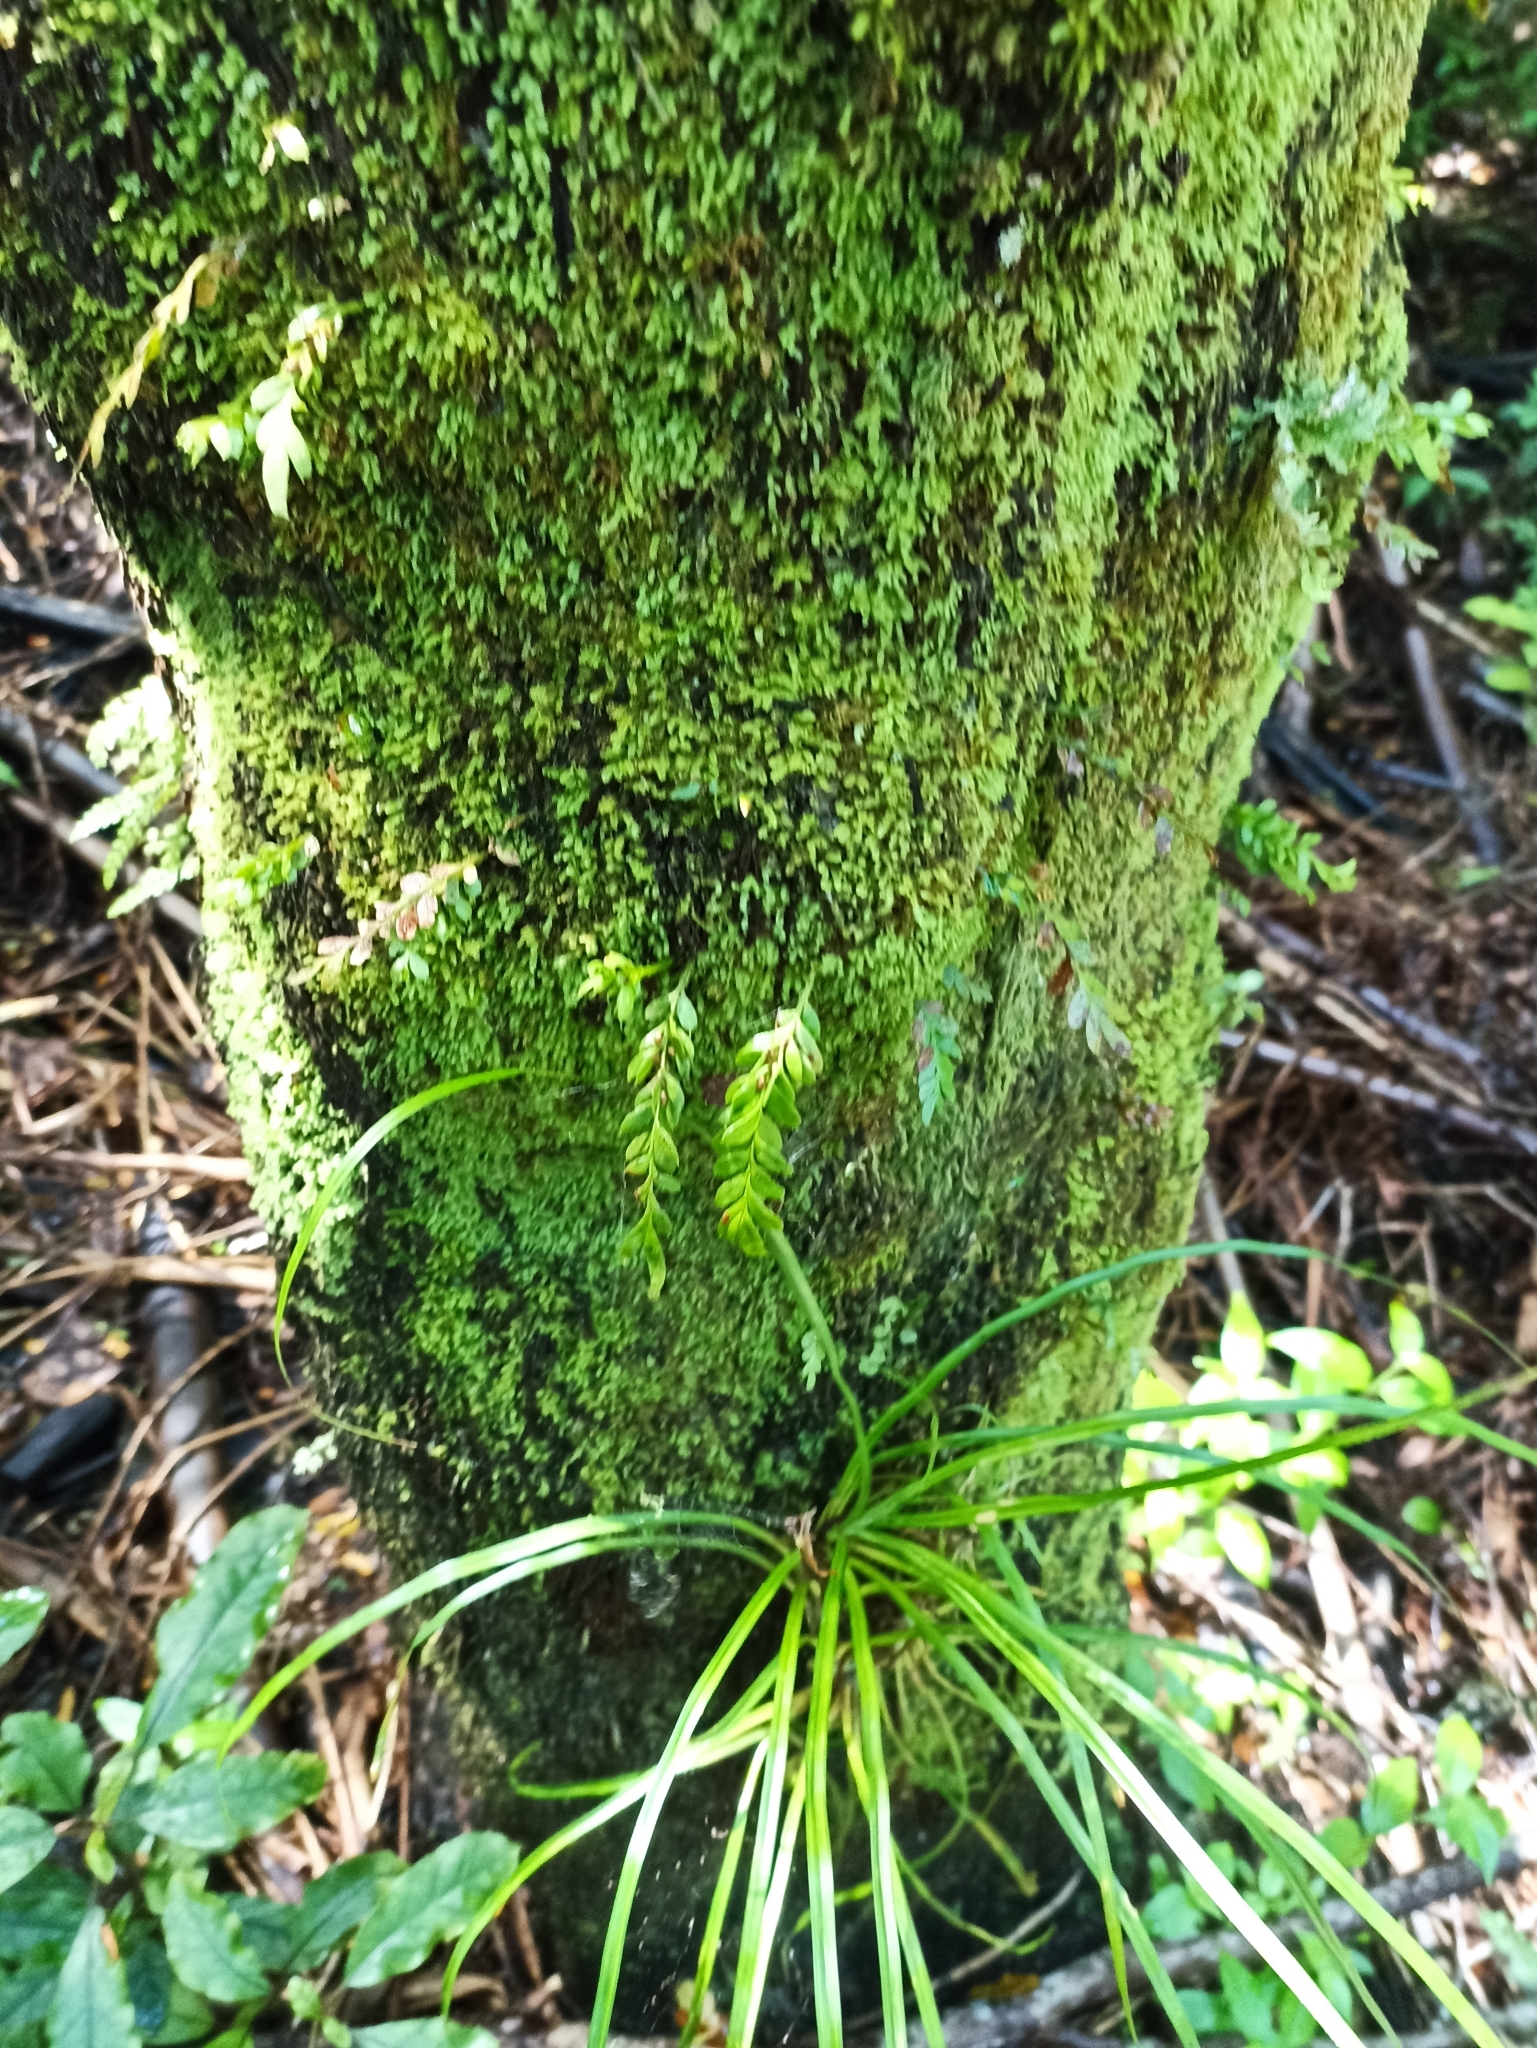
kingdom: Plantae
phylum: Tracheophyta
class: Polypodiopsida
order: Psilotales
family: Psilotaceae
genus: Tmesipteris
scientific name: Tmesipteris lanceolata
